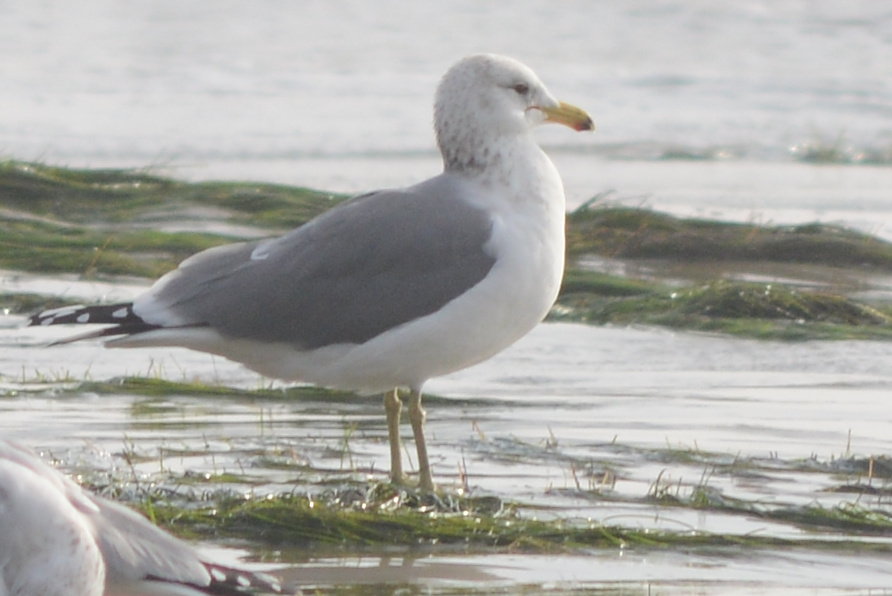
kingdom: Animalia
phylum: Chordata
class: Aves
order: Charadriiformes
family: Laridae
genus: Larus
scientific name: Larus californicus
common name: California gull
